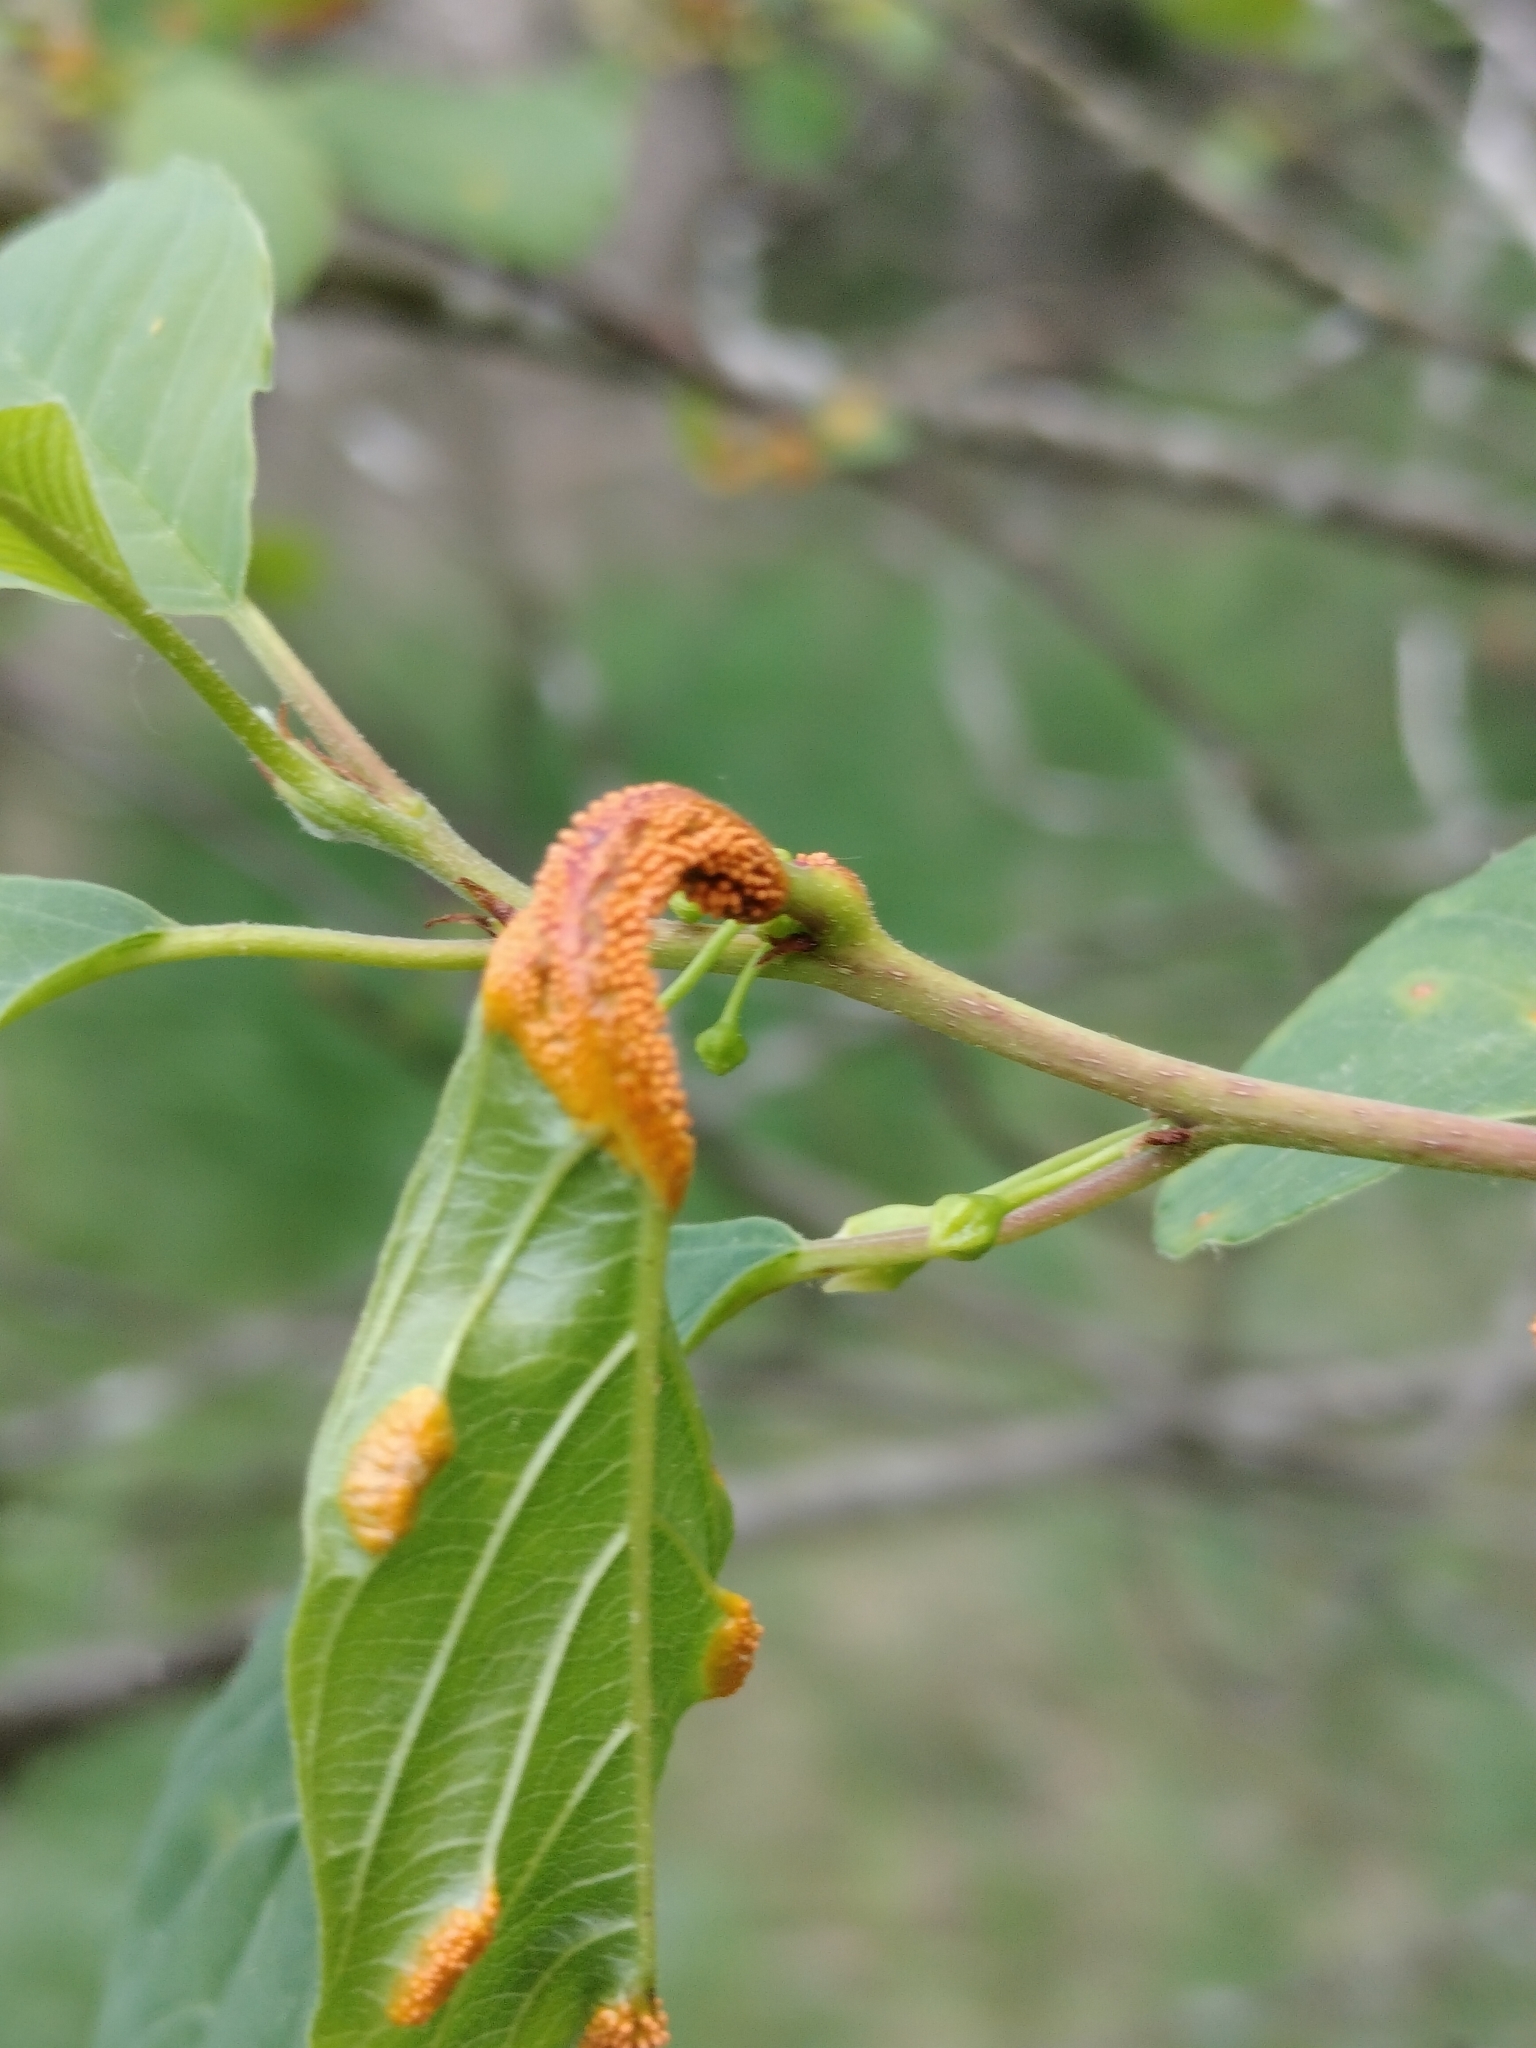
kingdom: Fungi
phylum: Basidiomycota
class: Pucciniomycetes
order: Pucciniales
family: Pucciniaceae
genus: Puccinia
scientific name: Puccinia coronata
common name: Crown rust
